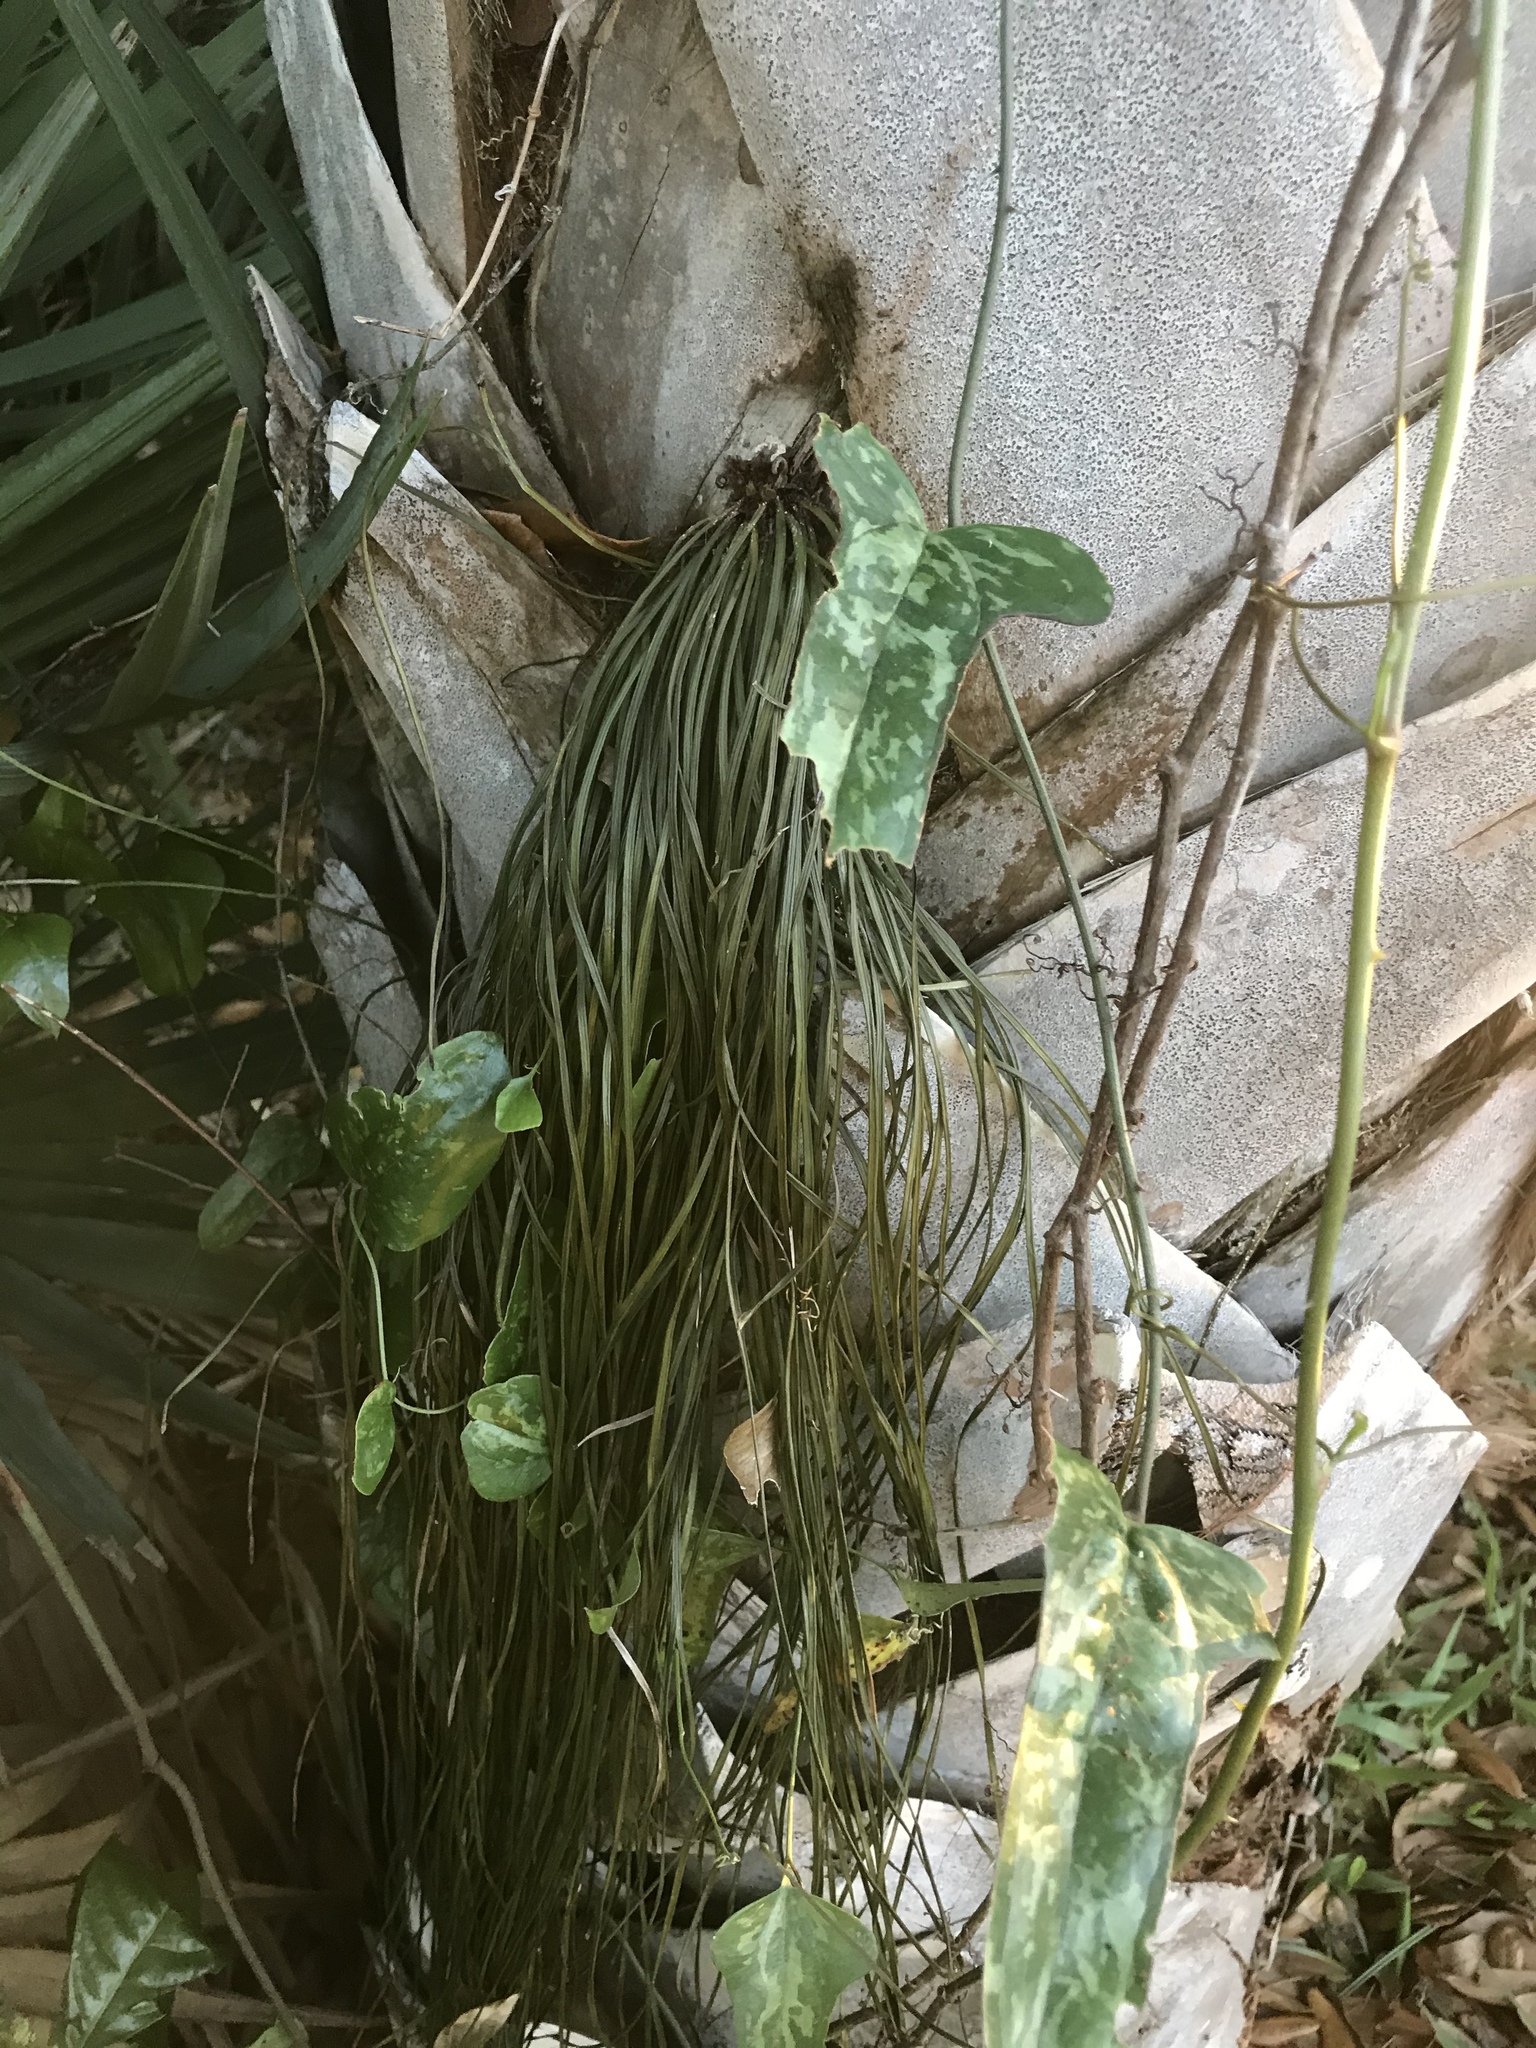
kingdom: Plantae
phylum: Tracheophyta
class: Polypodiopsida
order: Polypodiales
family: Pteridaceae
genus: Vittaria
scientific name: Vittaria lineata
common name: Shoestring fern
